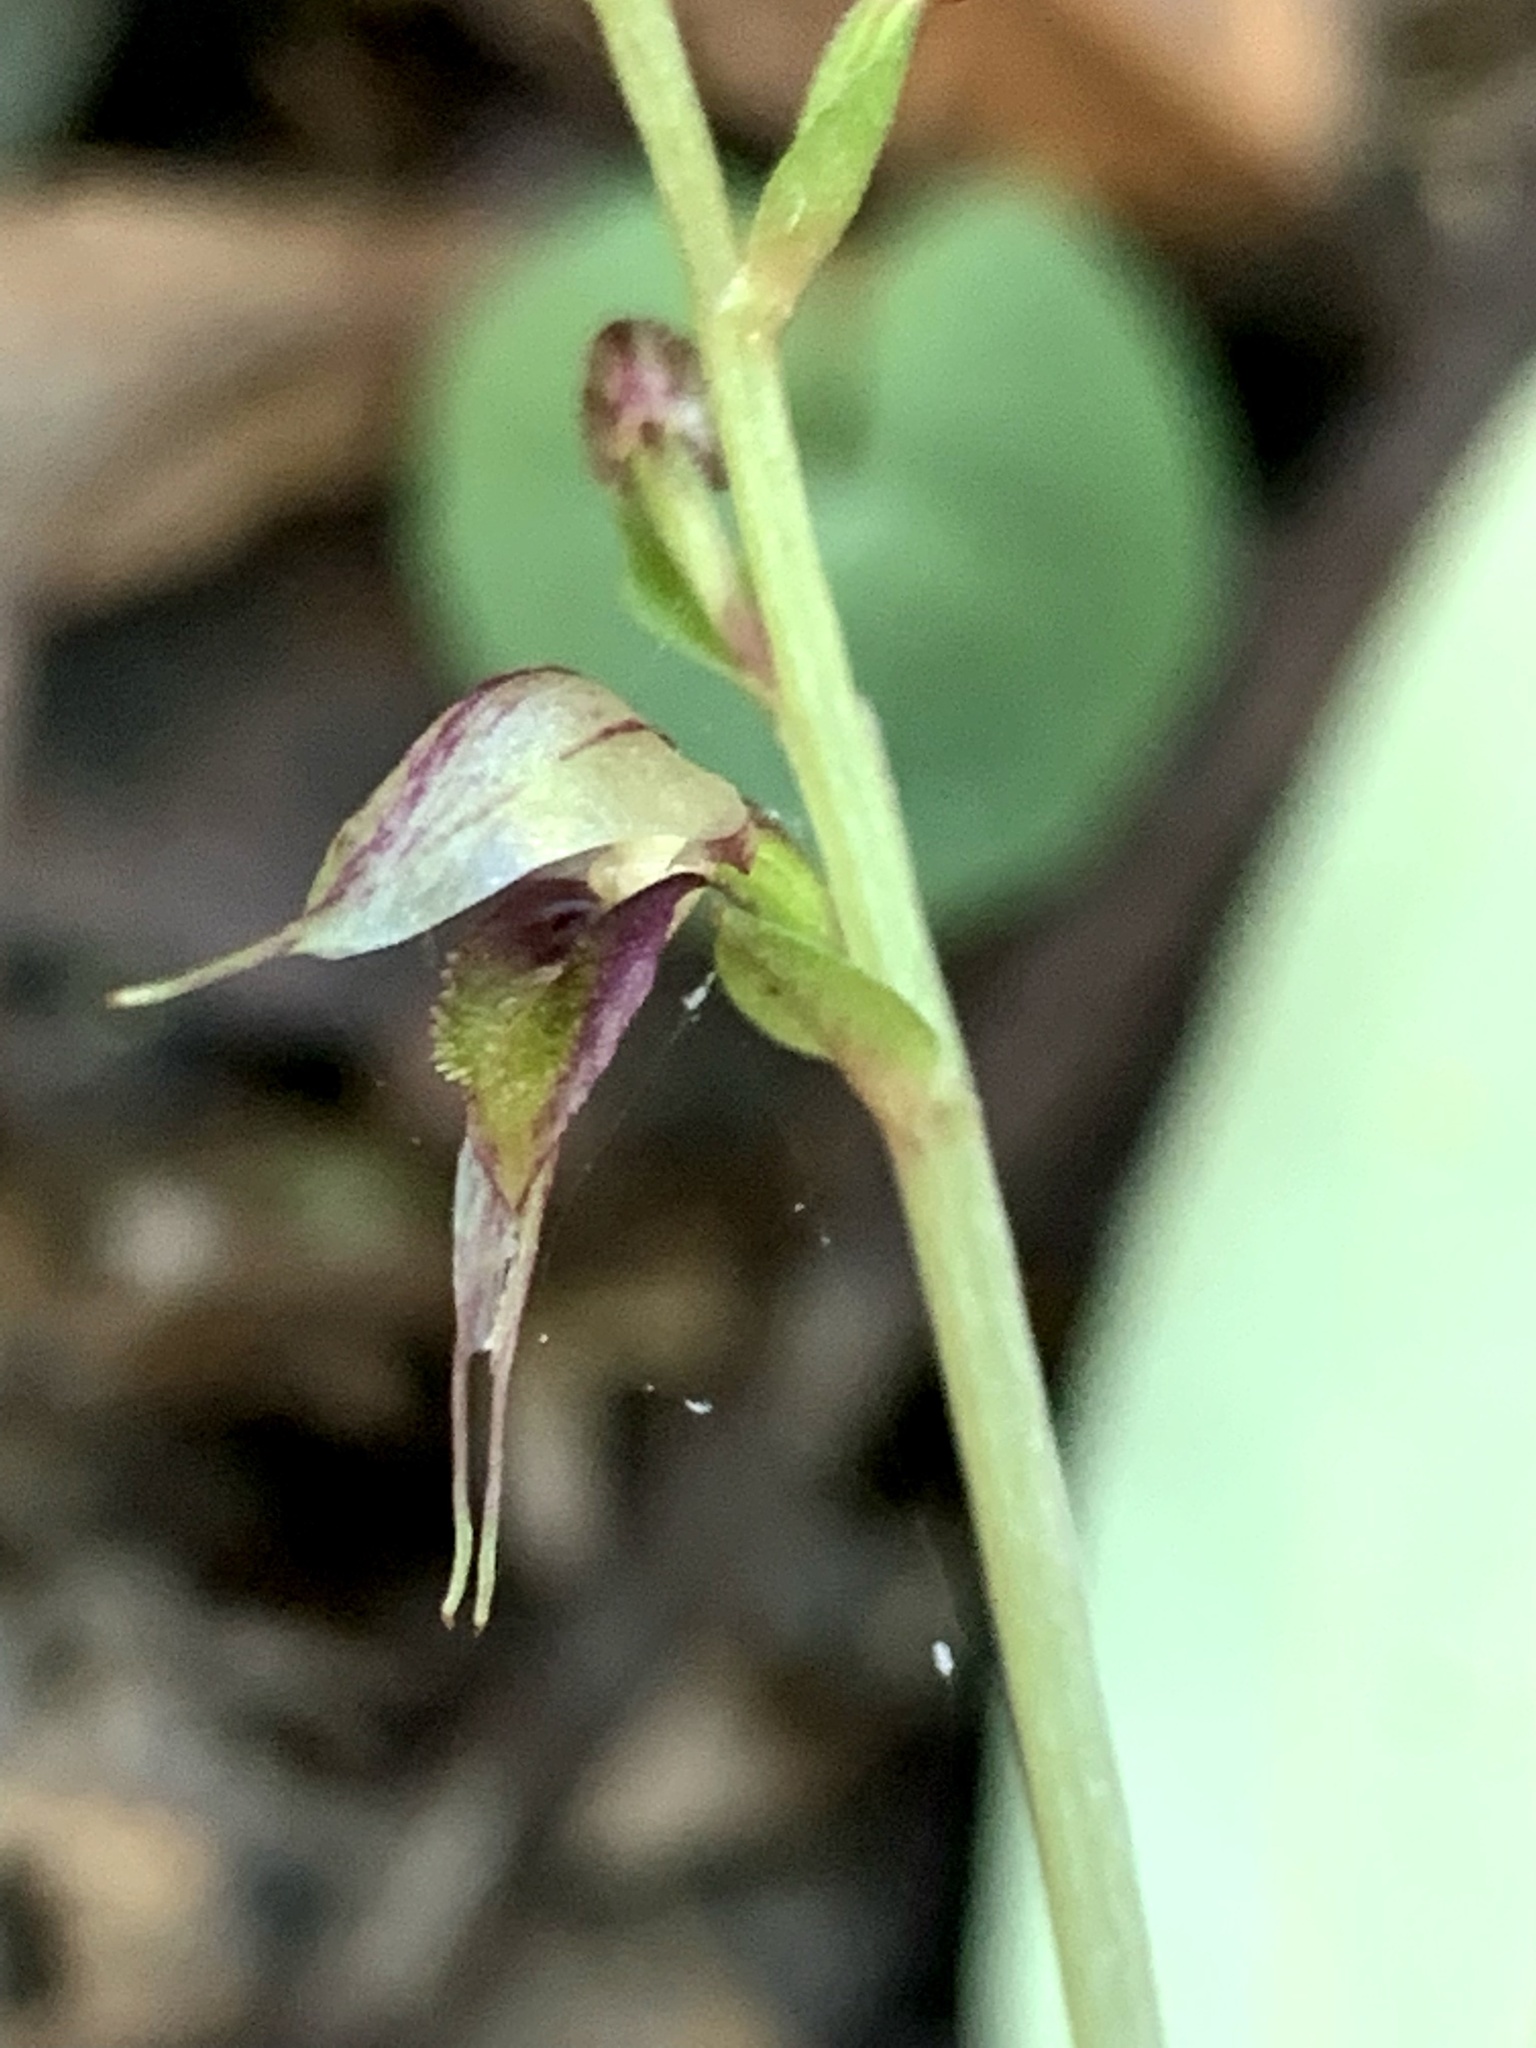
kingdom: Plantae
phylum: Tracheophyta
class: Liliopsida
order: Asparagales
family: Orchidaceae
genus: Acianthus
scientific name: Acianthus fornicatus
